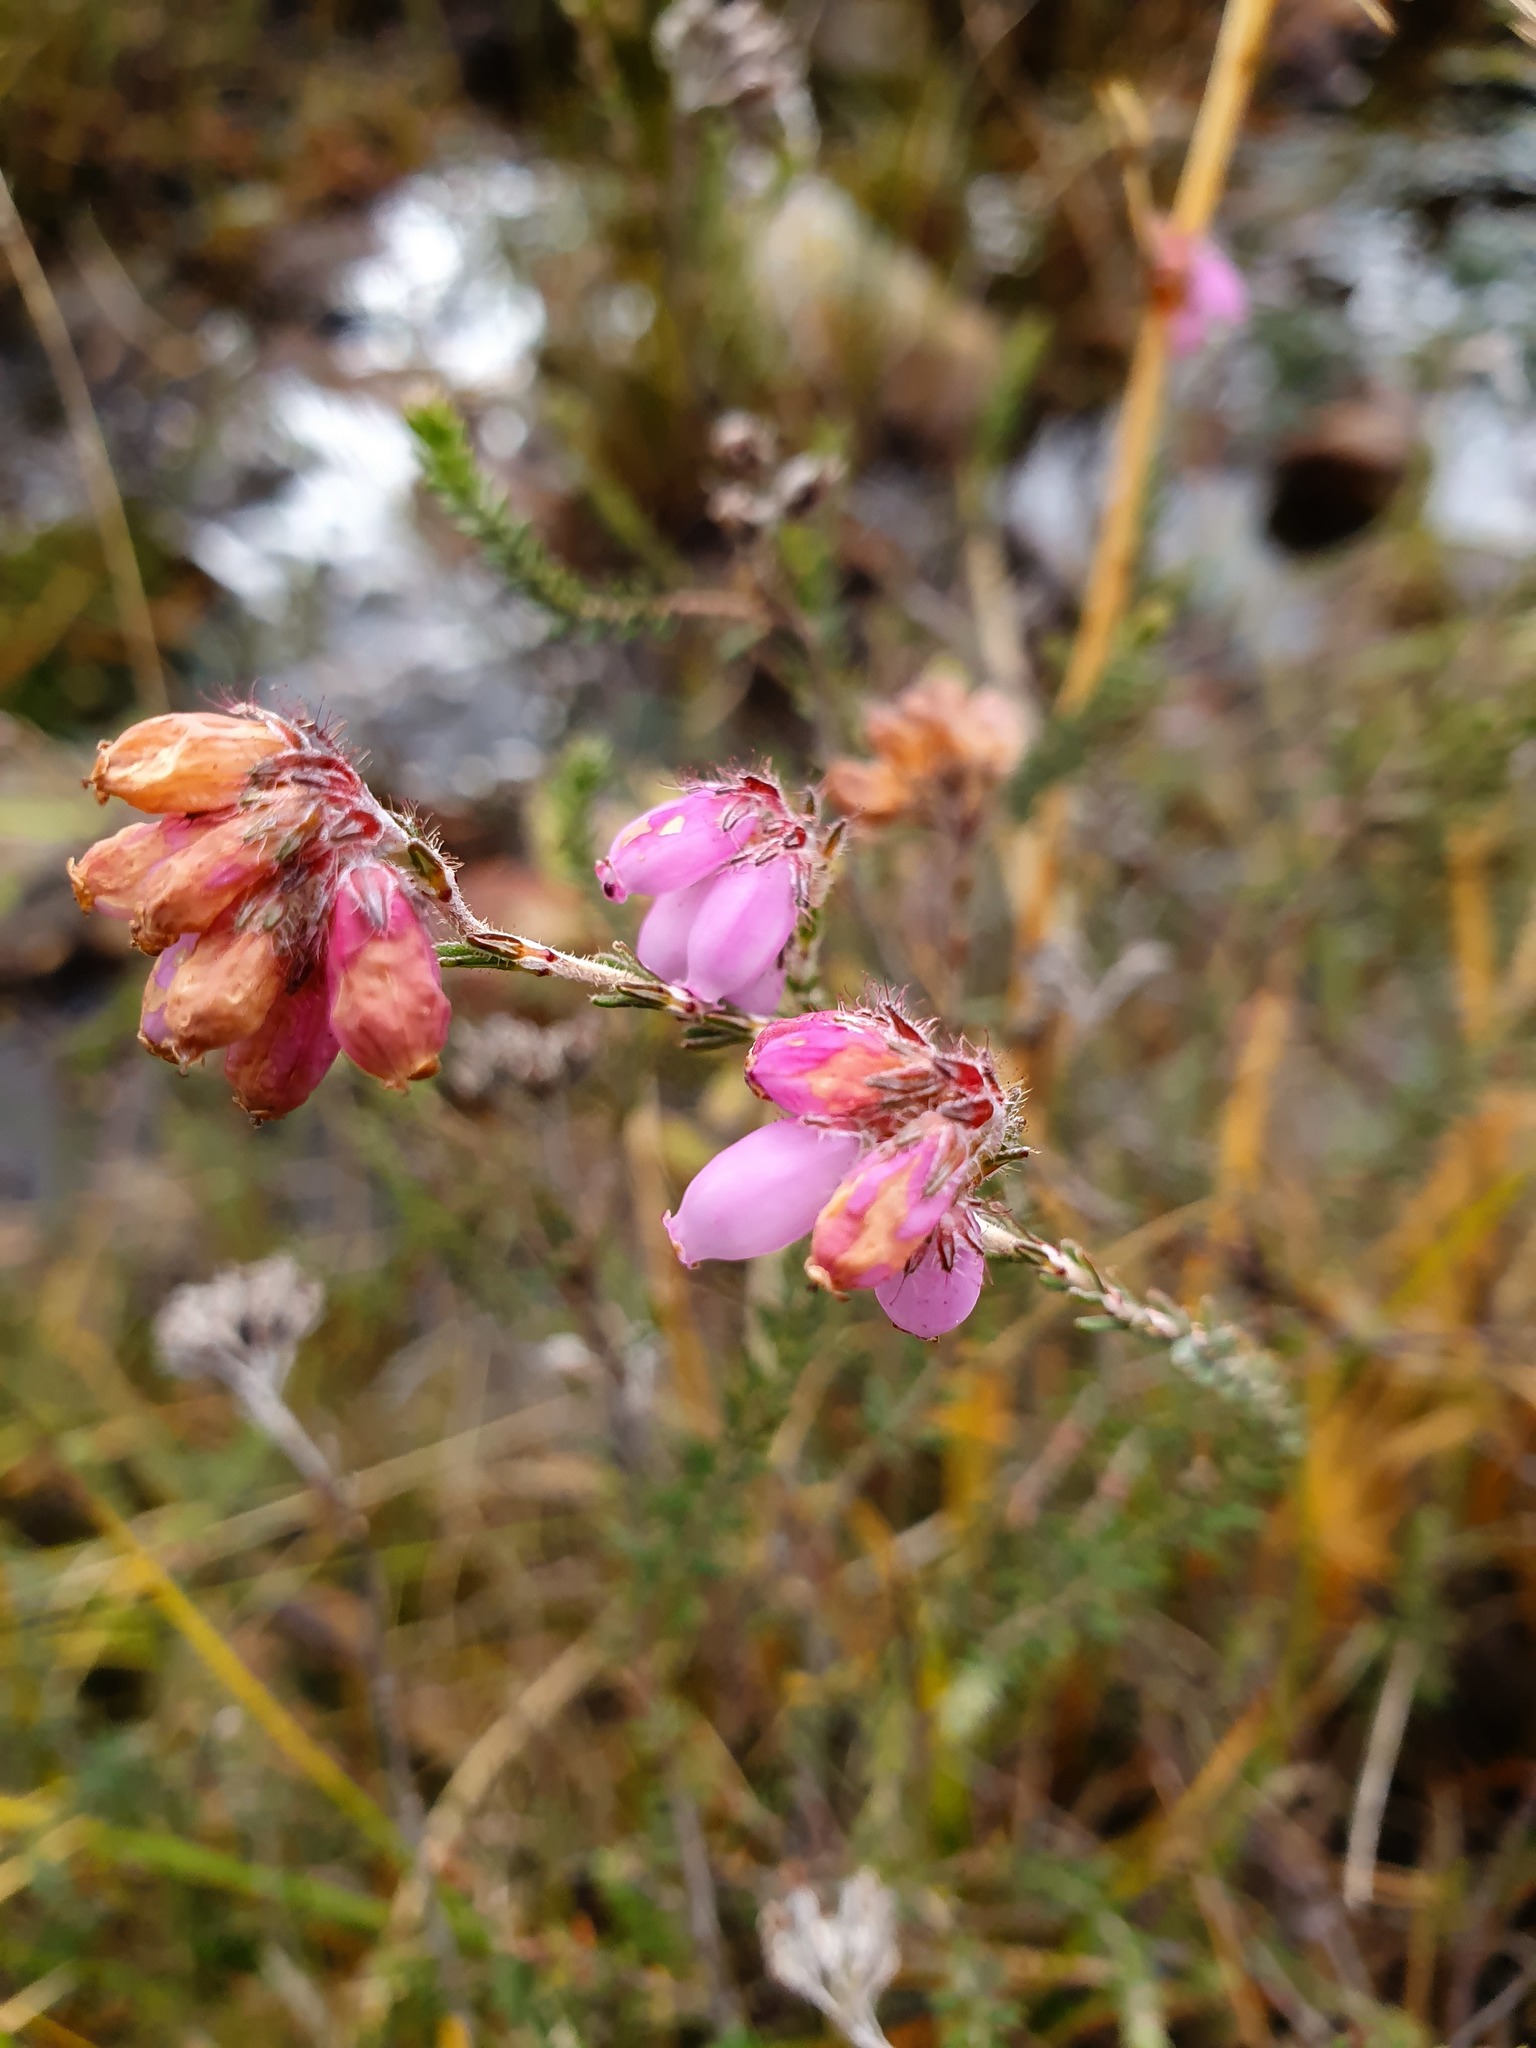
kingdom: Plantae
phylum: Tracheophyta
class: Magnoliopsida
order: Ericales
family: Ericaceae
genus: Erica
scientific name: Erica tetralix
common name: Cross-leaved heath
